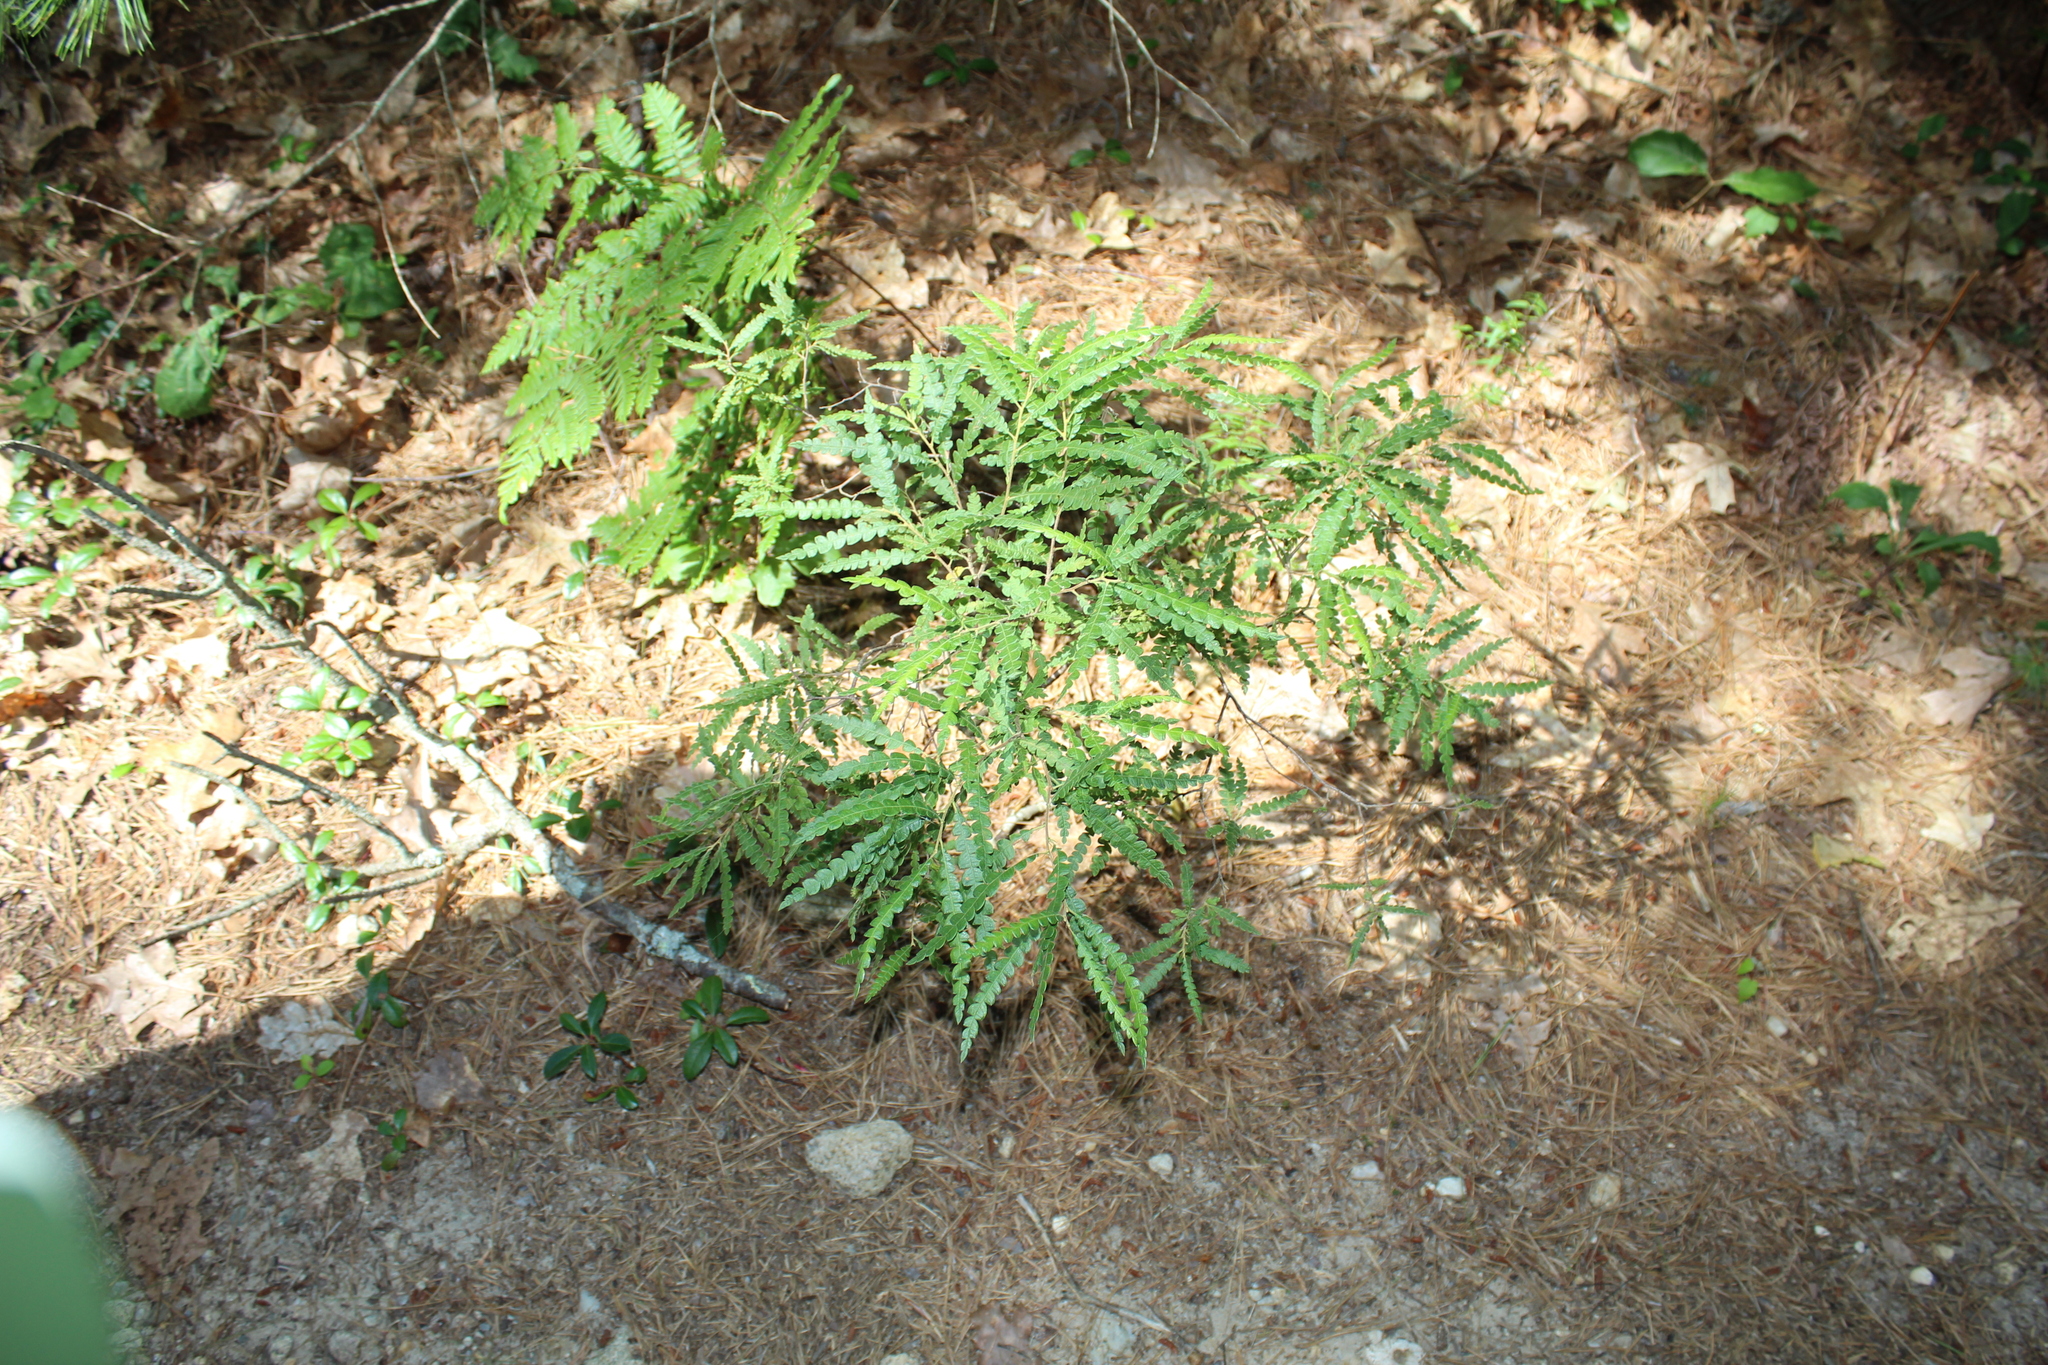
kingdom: Plantae
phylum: Tracheophyta
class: Magnoliopsida
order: Fagales
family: Myricaceae
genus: Comptonia
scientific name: Comptonia peregrina
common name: Sweet-fern
